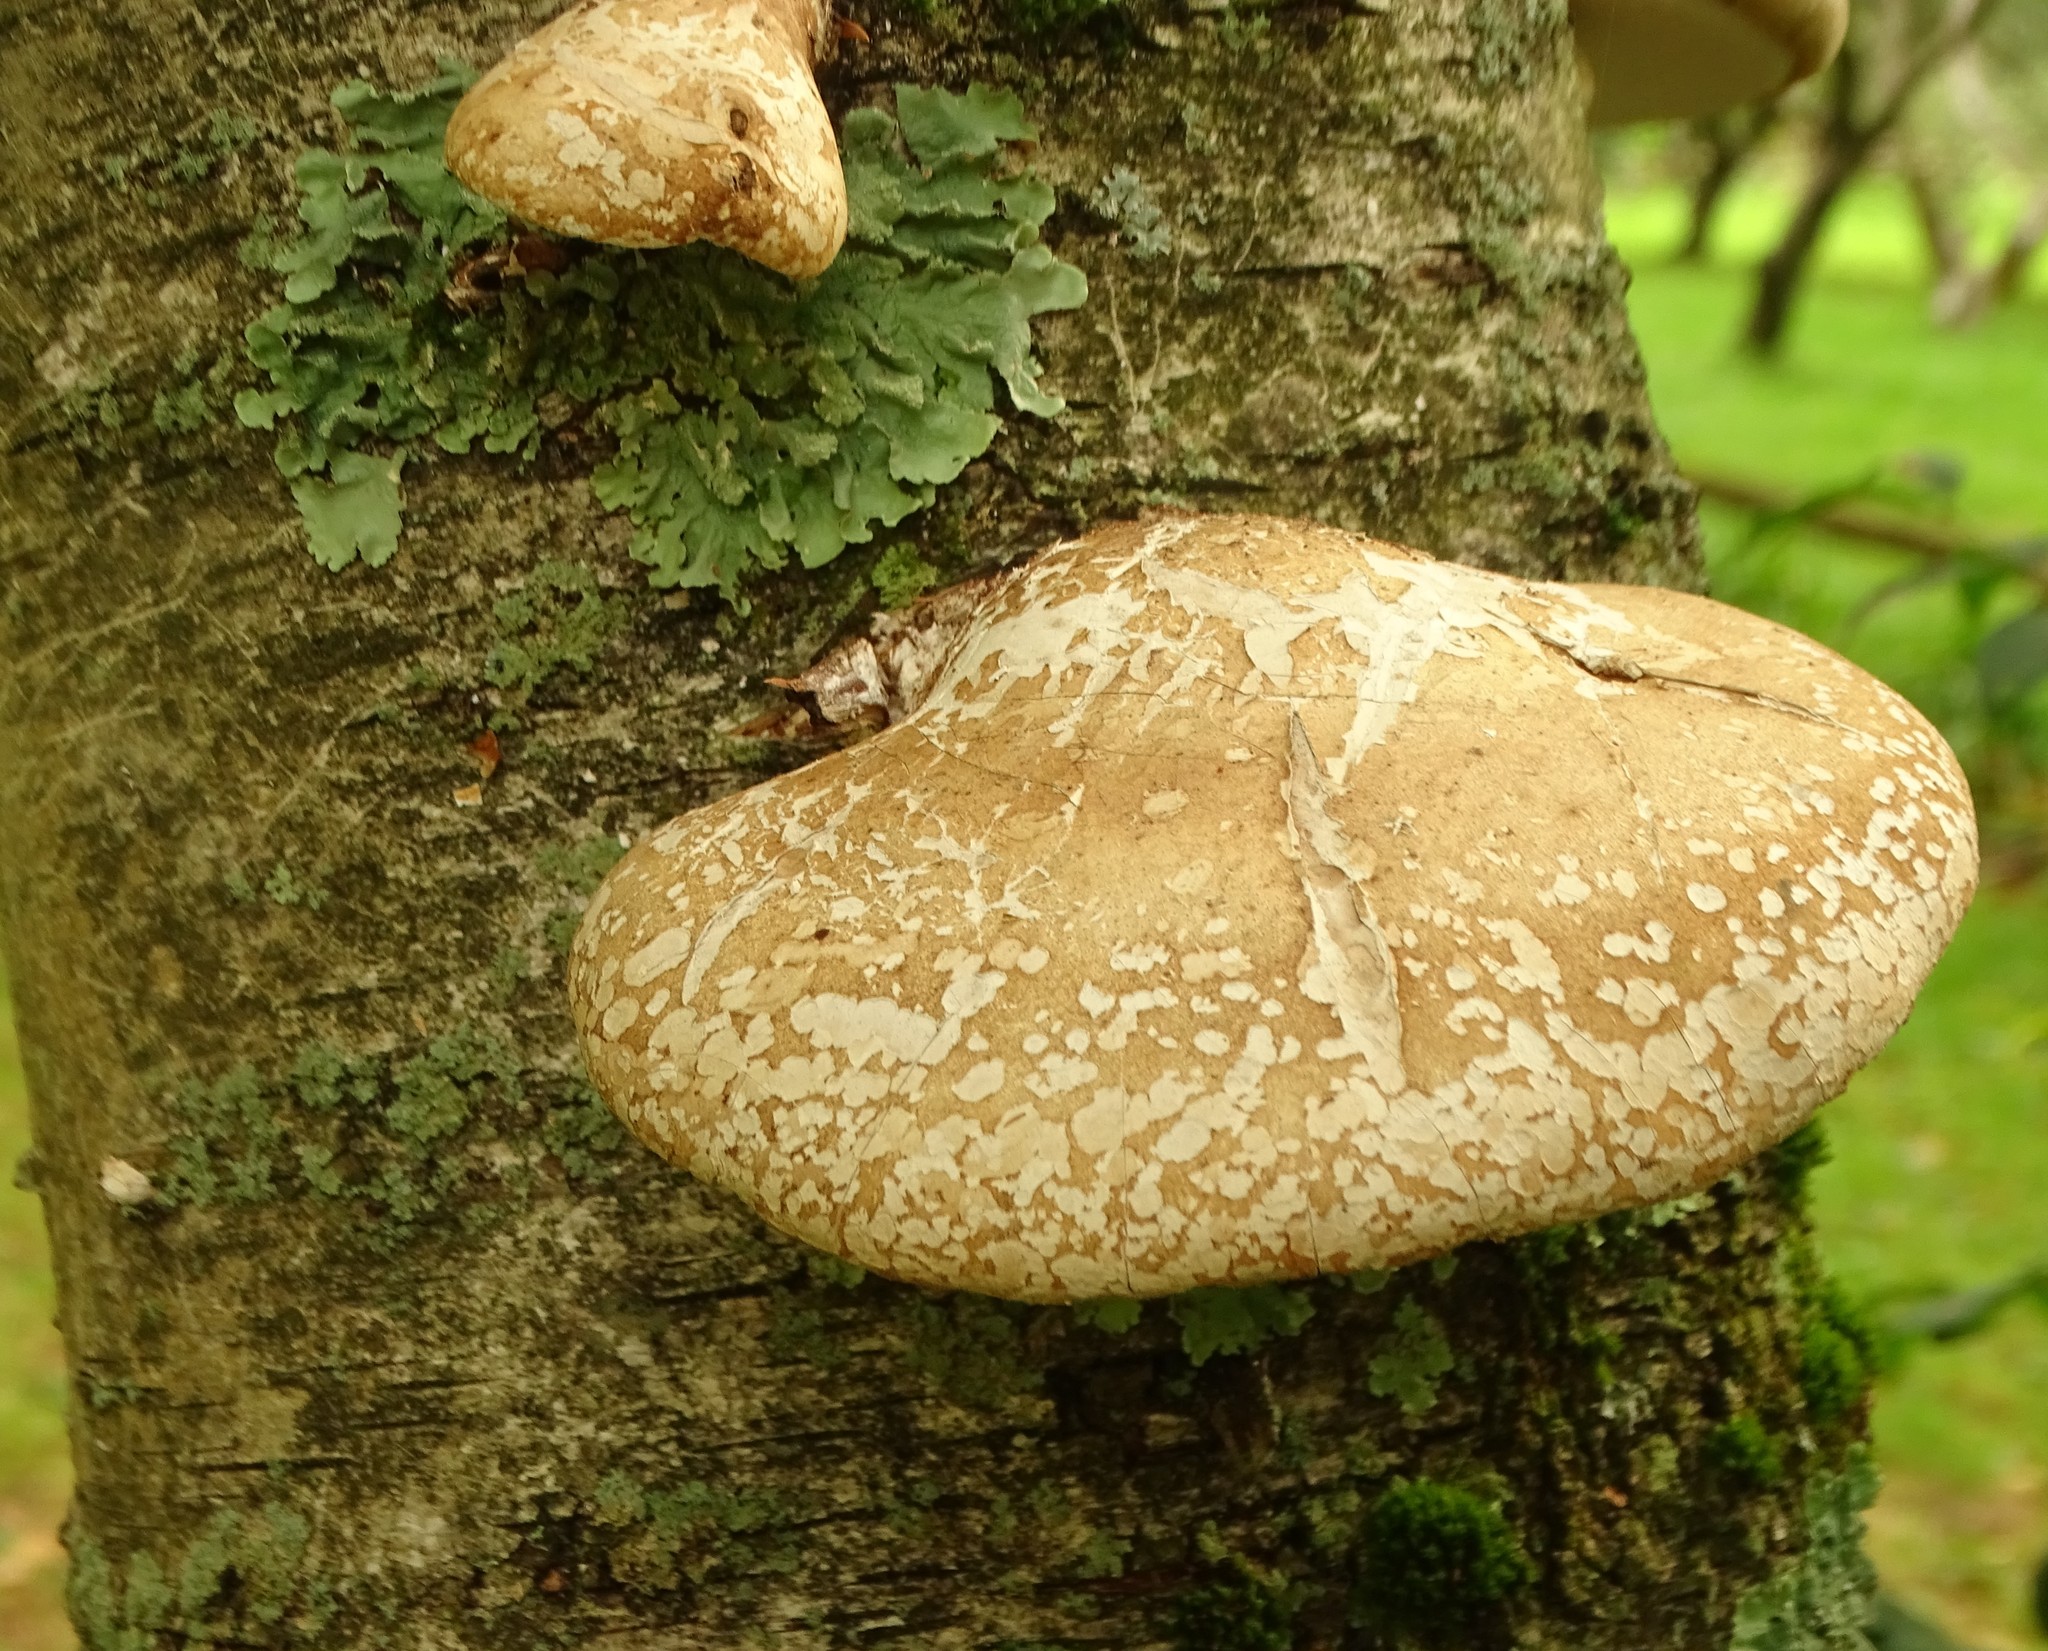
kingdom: Fungi
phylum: Basidiomycota
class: Agaricomycetes
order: Polyporales
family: Fomitopsidaceae
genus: Fomitopsis
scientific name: Fomitopsis betulina
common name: Birch polypore
